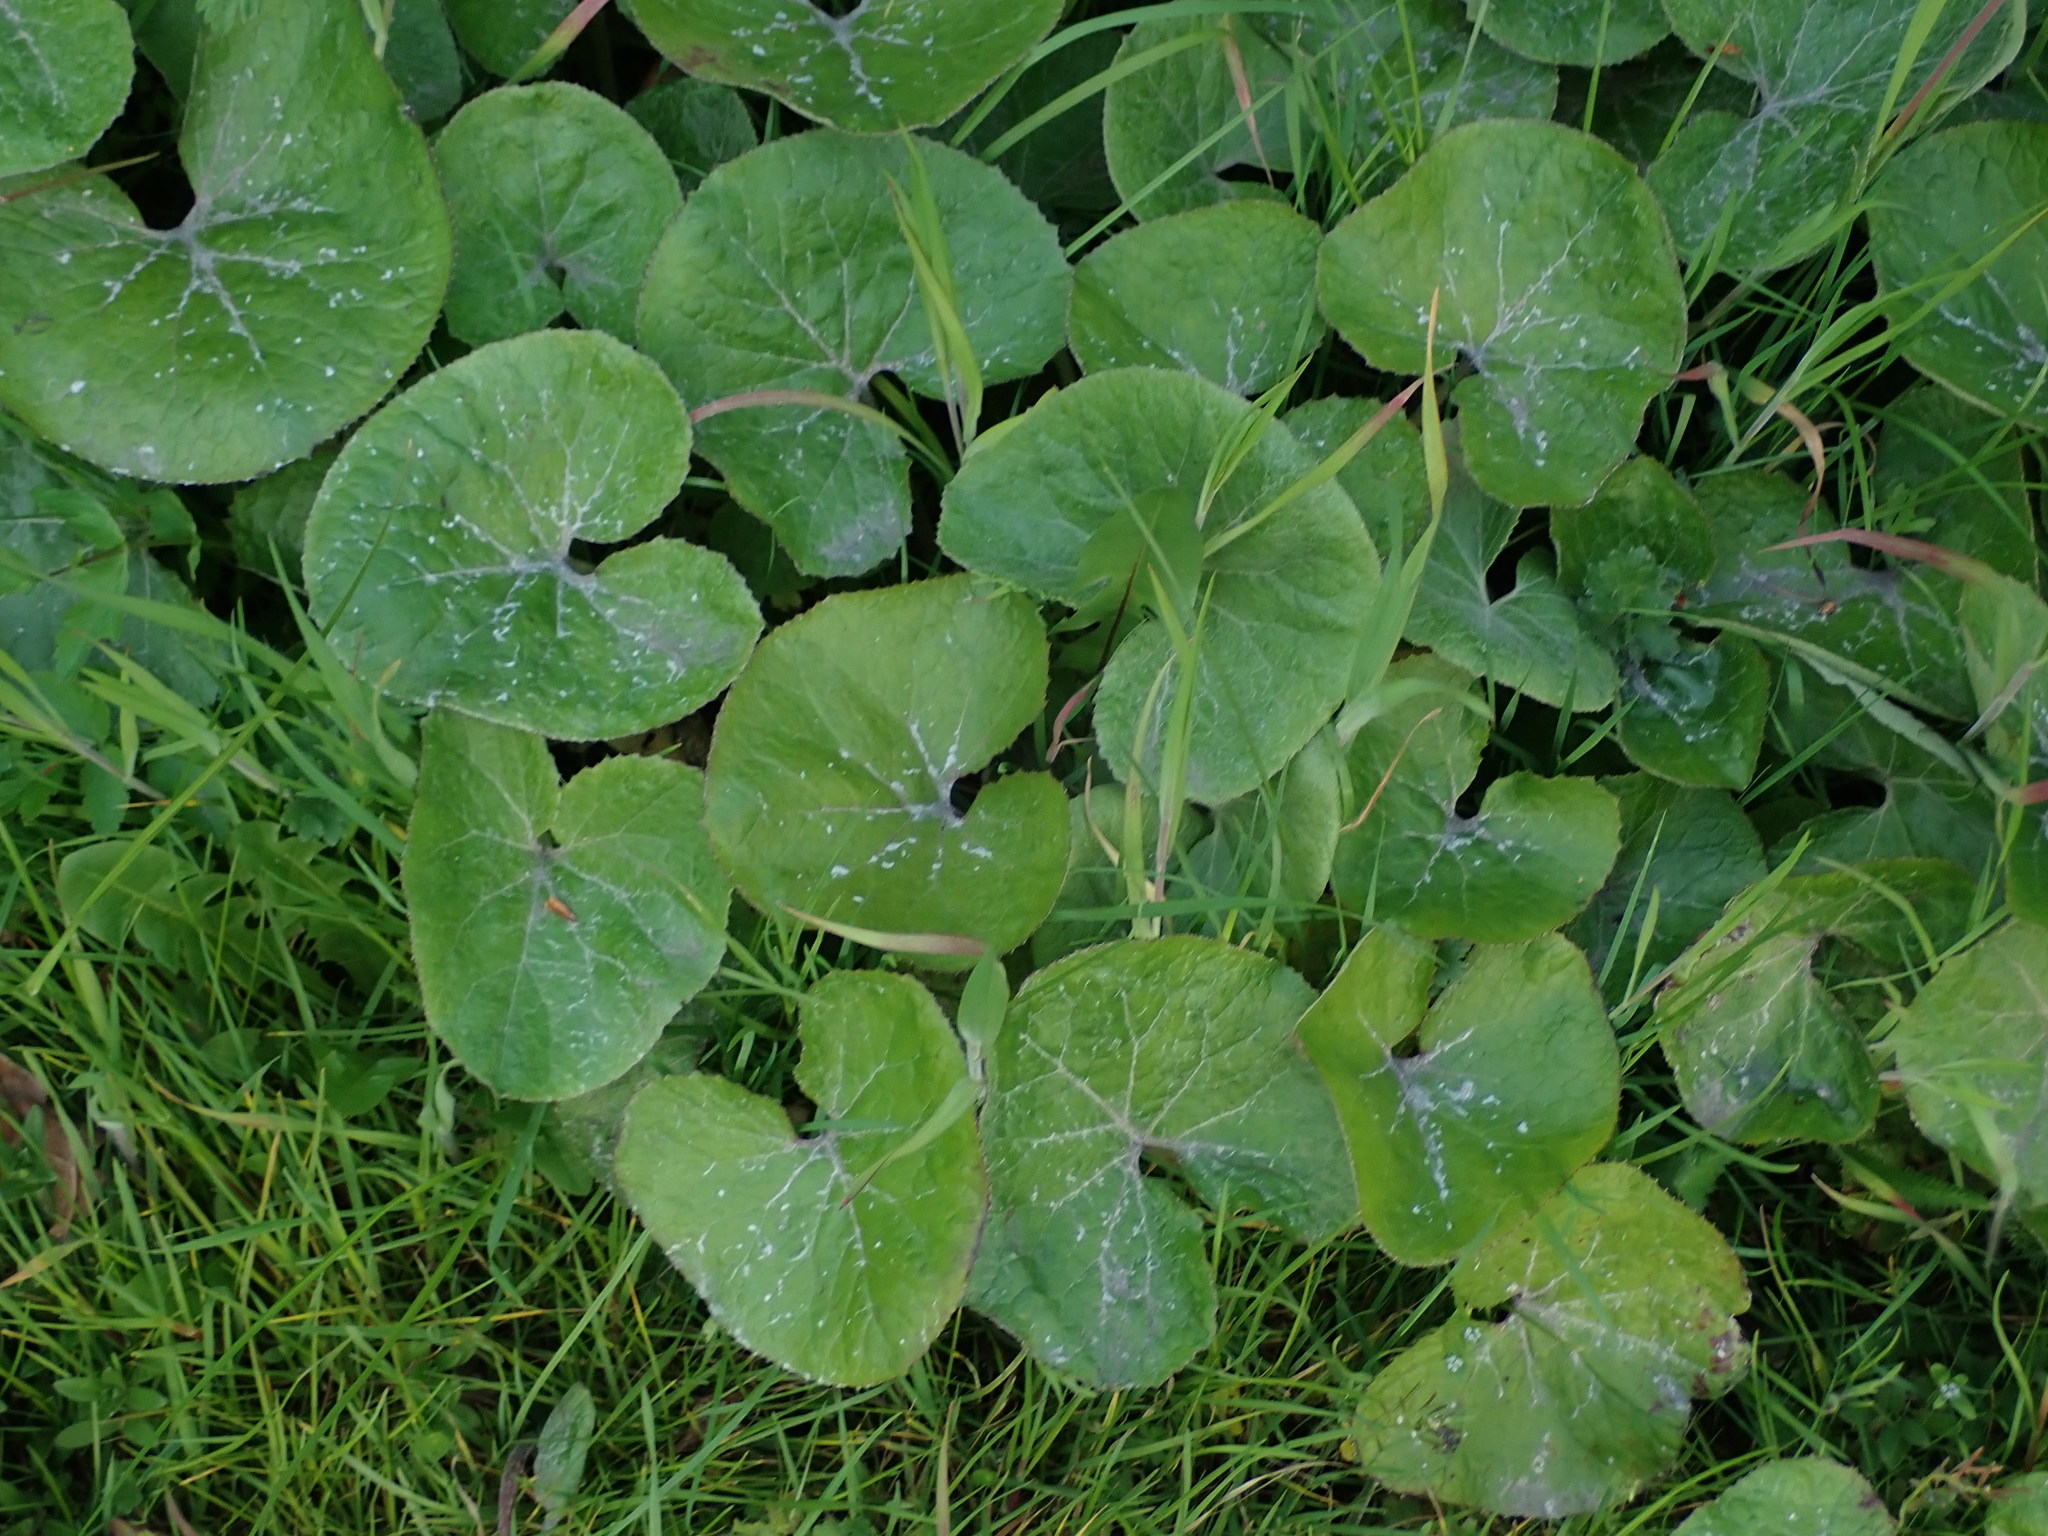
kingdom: Plantae
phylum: Tracheophyta
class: Magnoliopsida
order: Asterales
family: Asteraceae
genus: Petasites
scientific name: Petasites pyrenaicus
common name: Winter heliotrope
